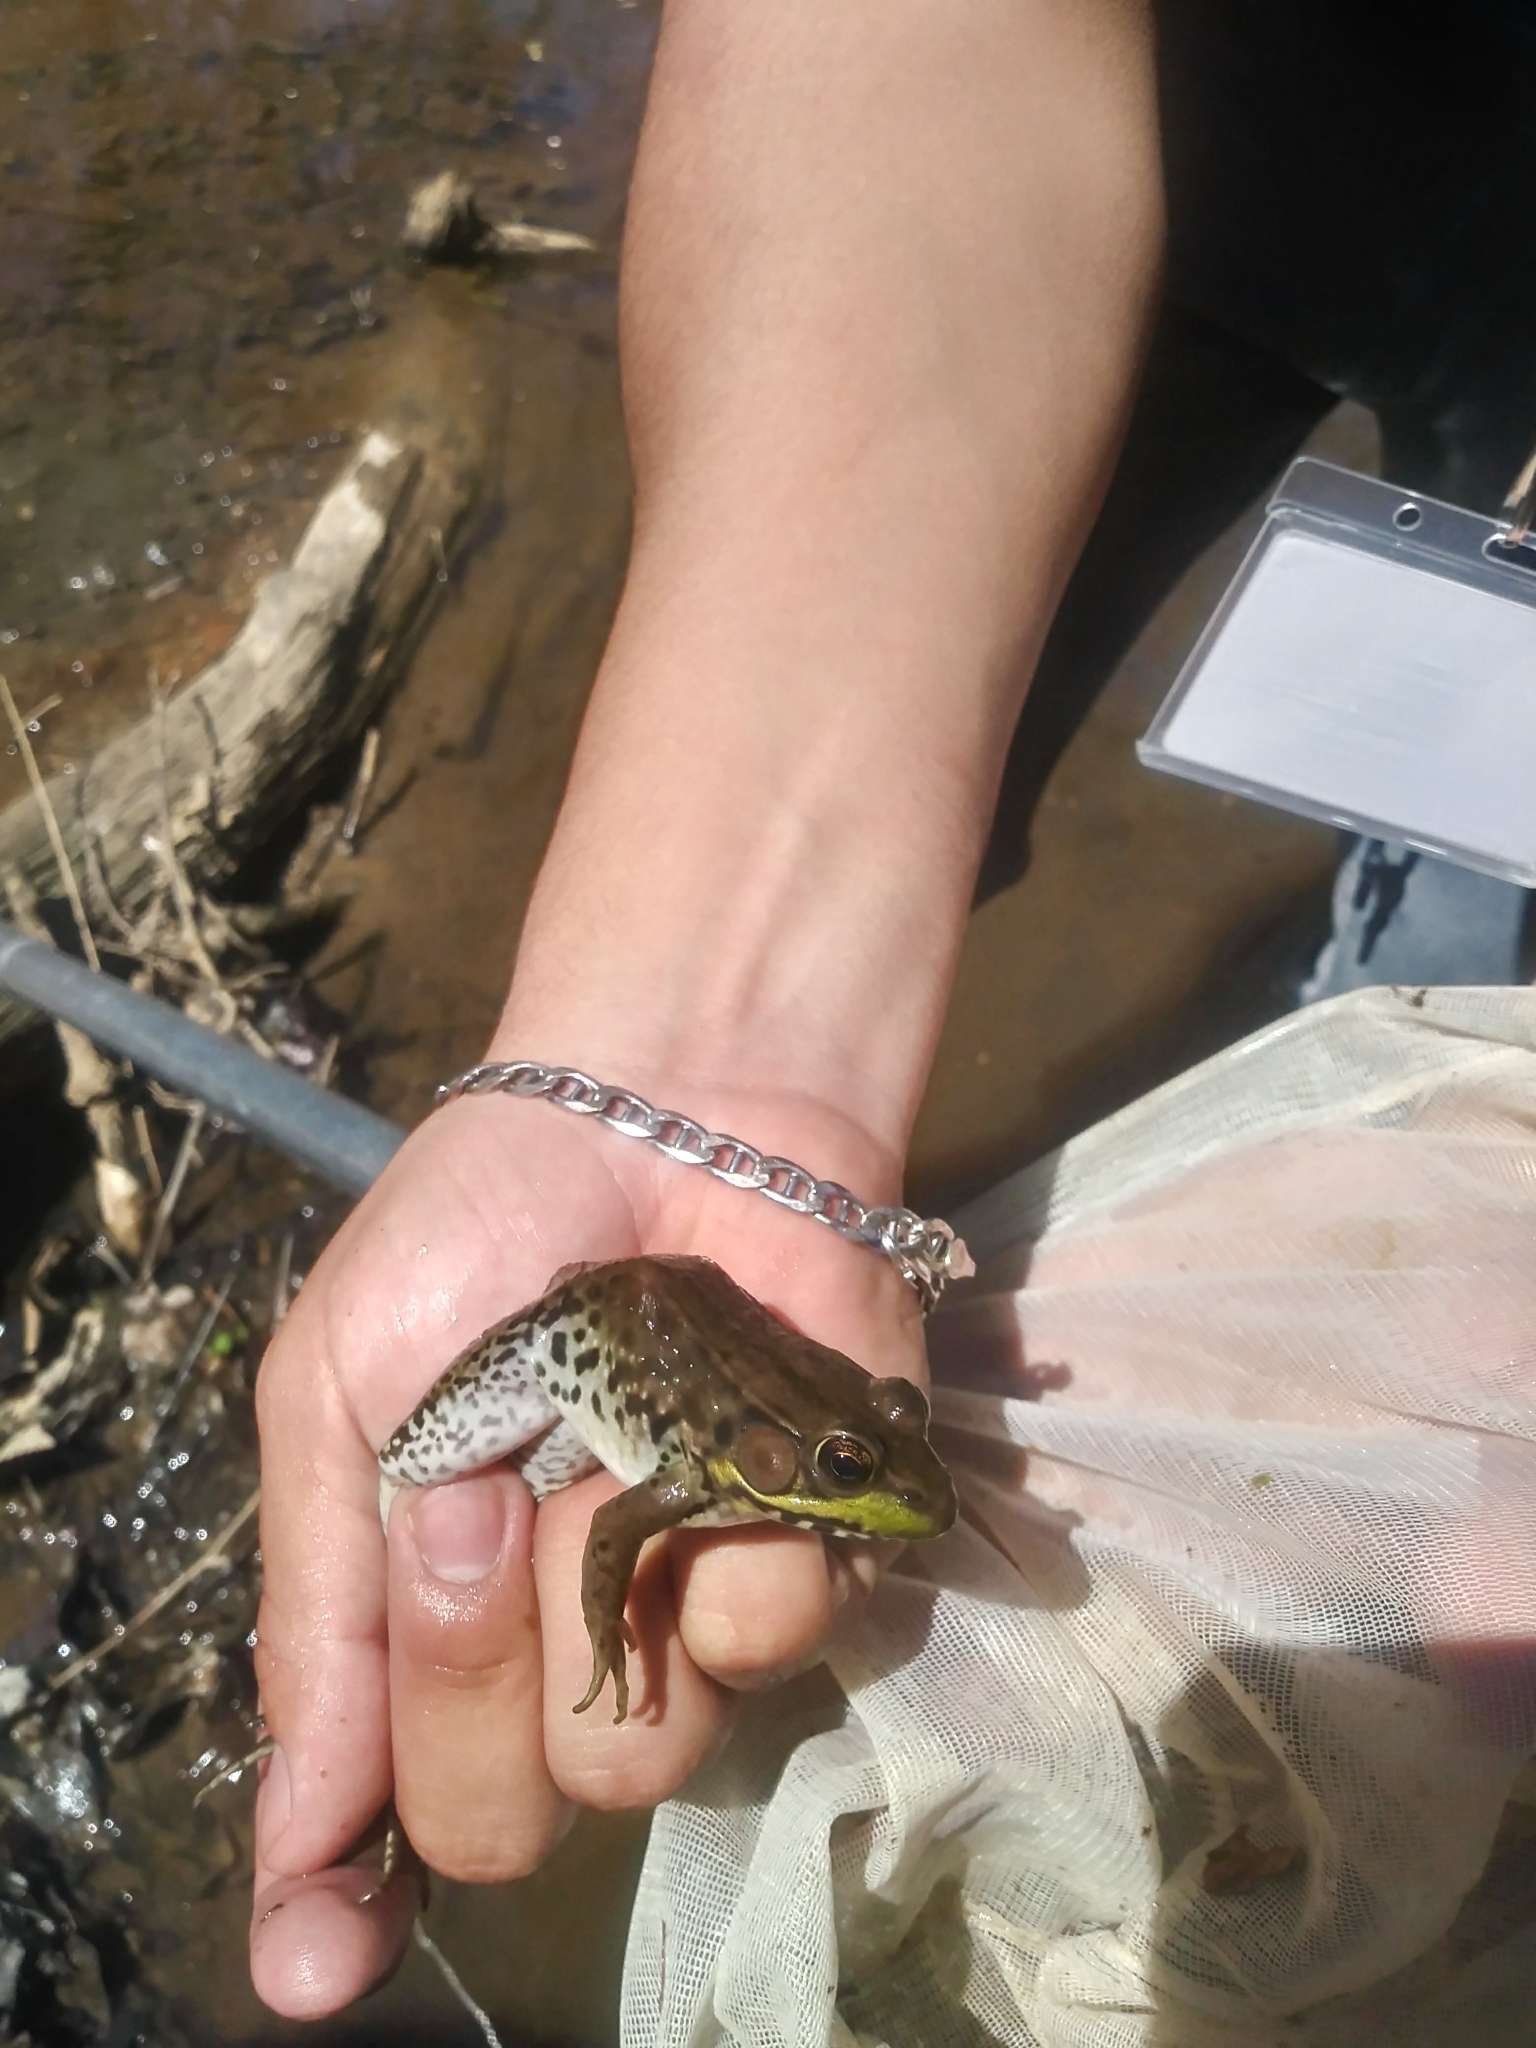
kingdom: Animalia
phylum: Chordata
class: Amphibia
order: Anura
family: Ranidae
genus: Lithobates
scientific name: Lithobates clamitans
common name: Green frog
